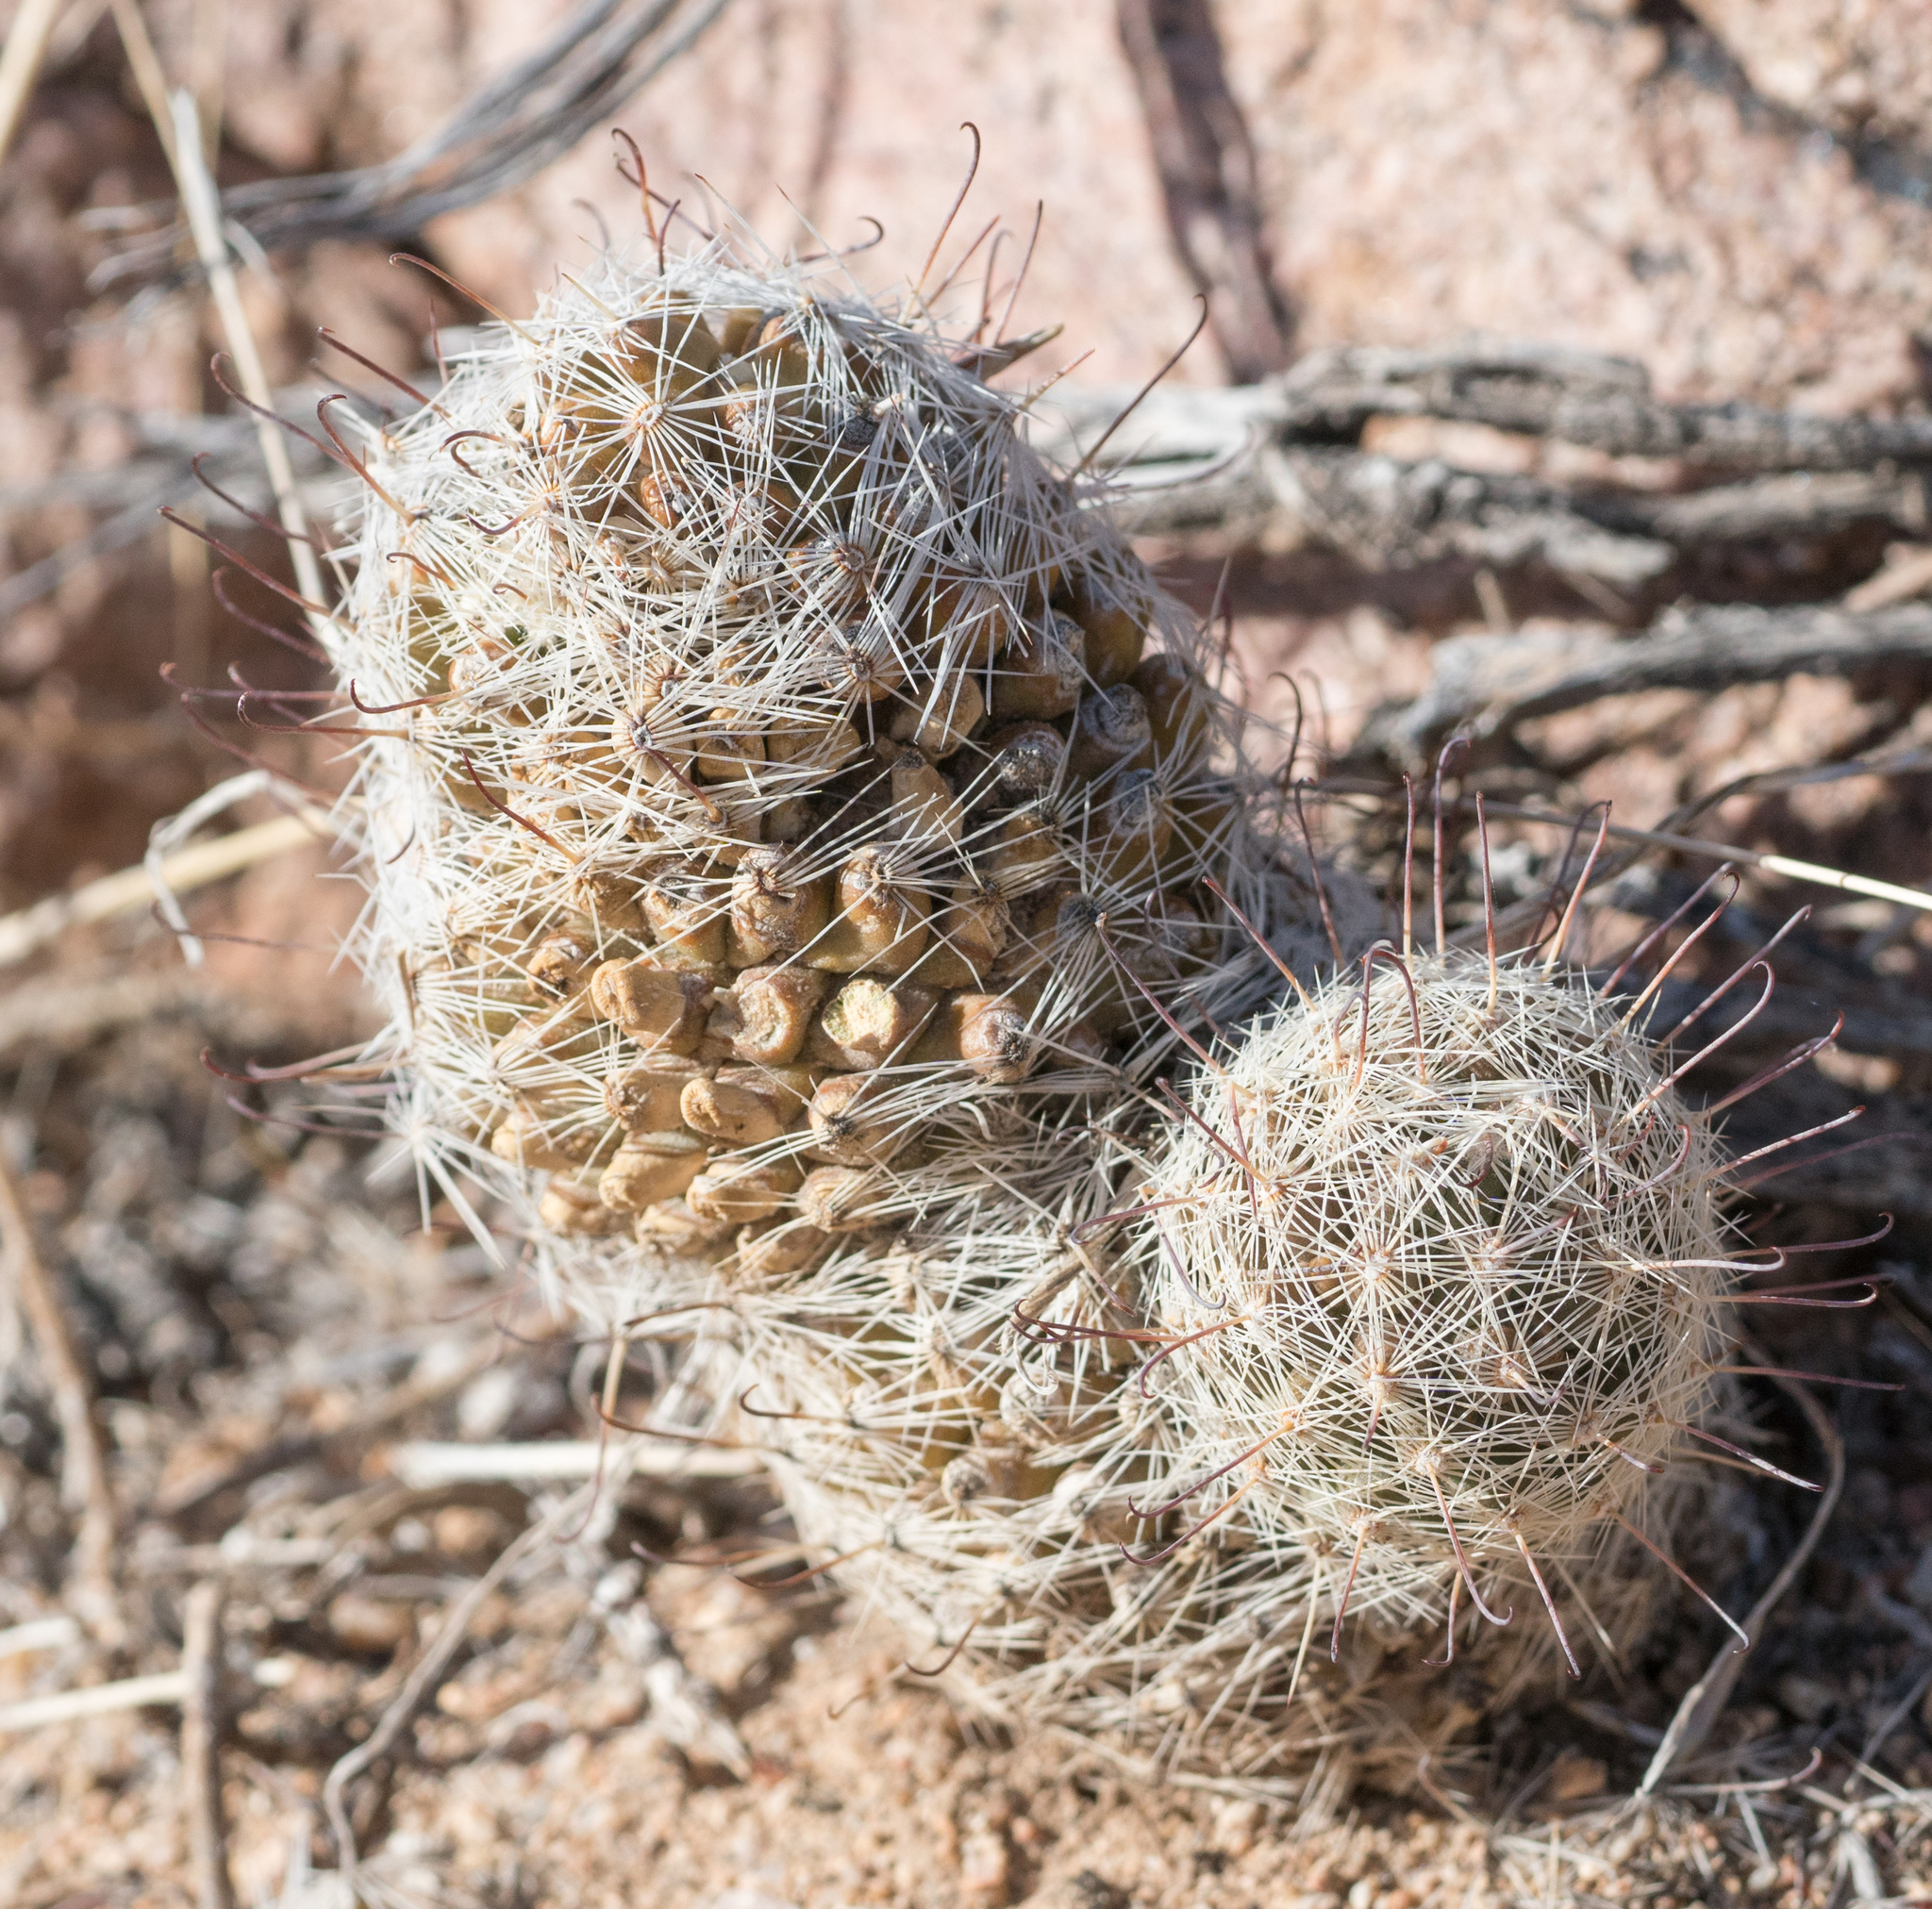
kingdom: Plantae
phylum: Tracheophyta
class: Magnoliopsida
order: Caryophyllales
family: Cactaceae
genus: Cochemiea
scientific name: Cochemiea grahamii
